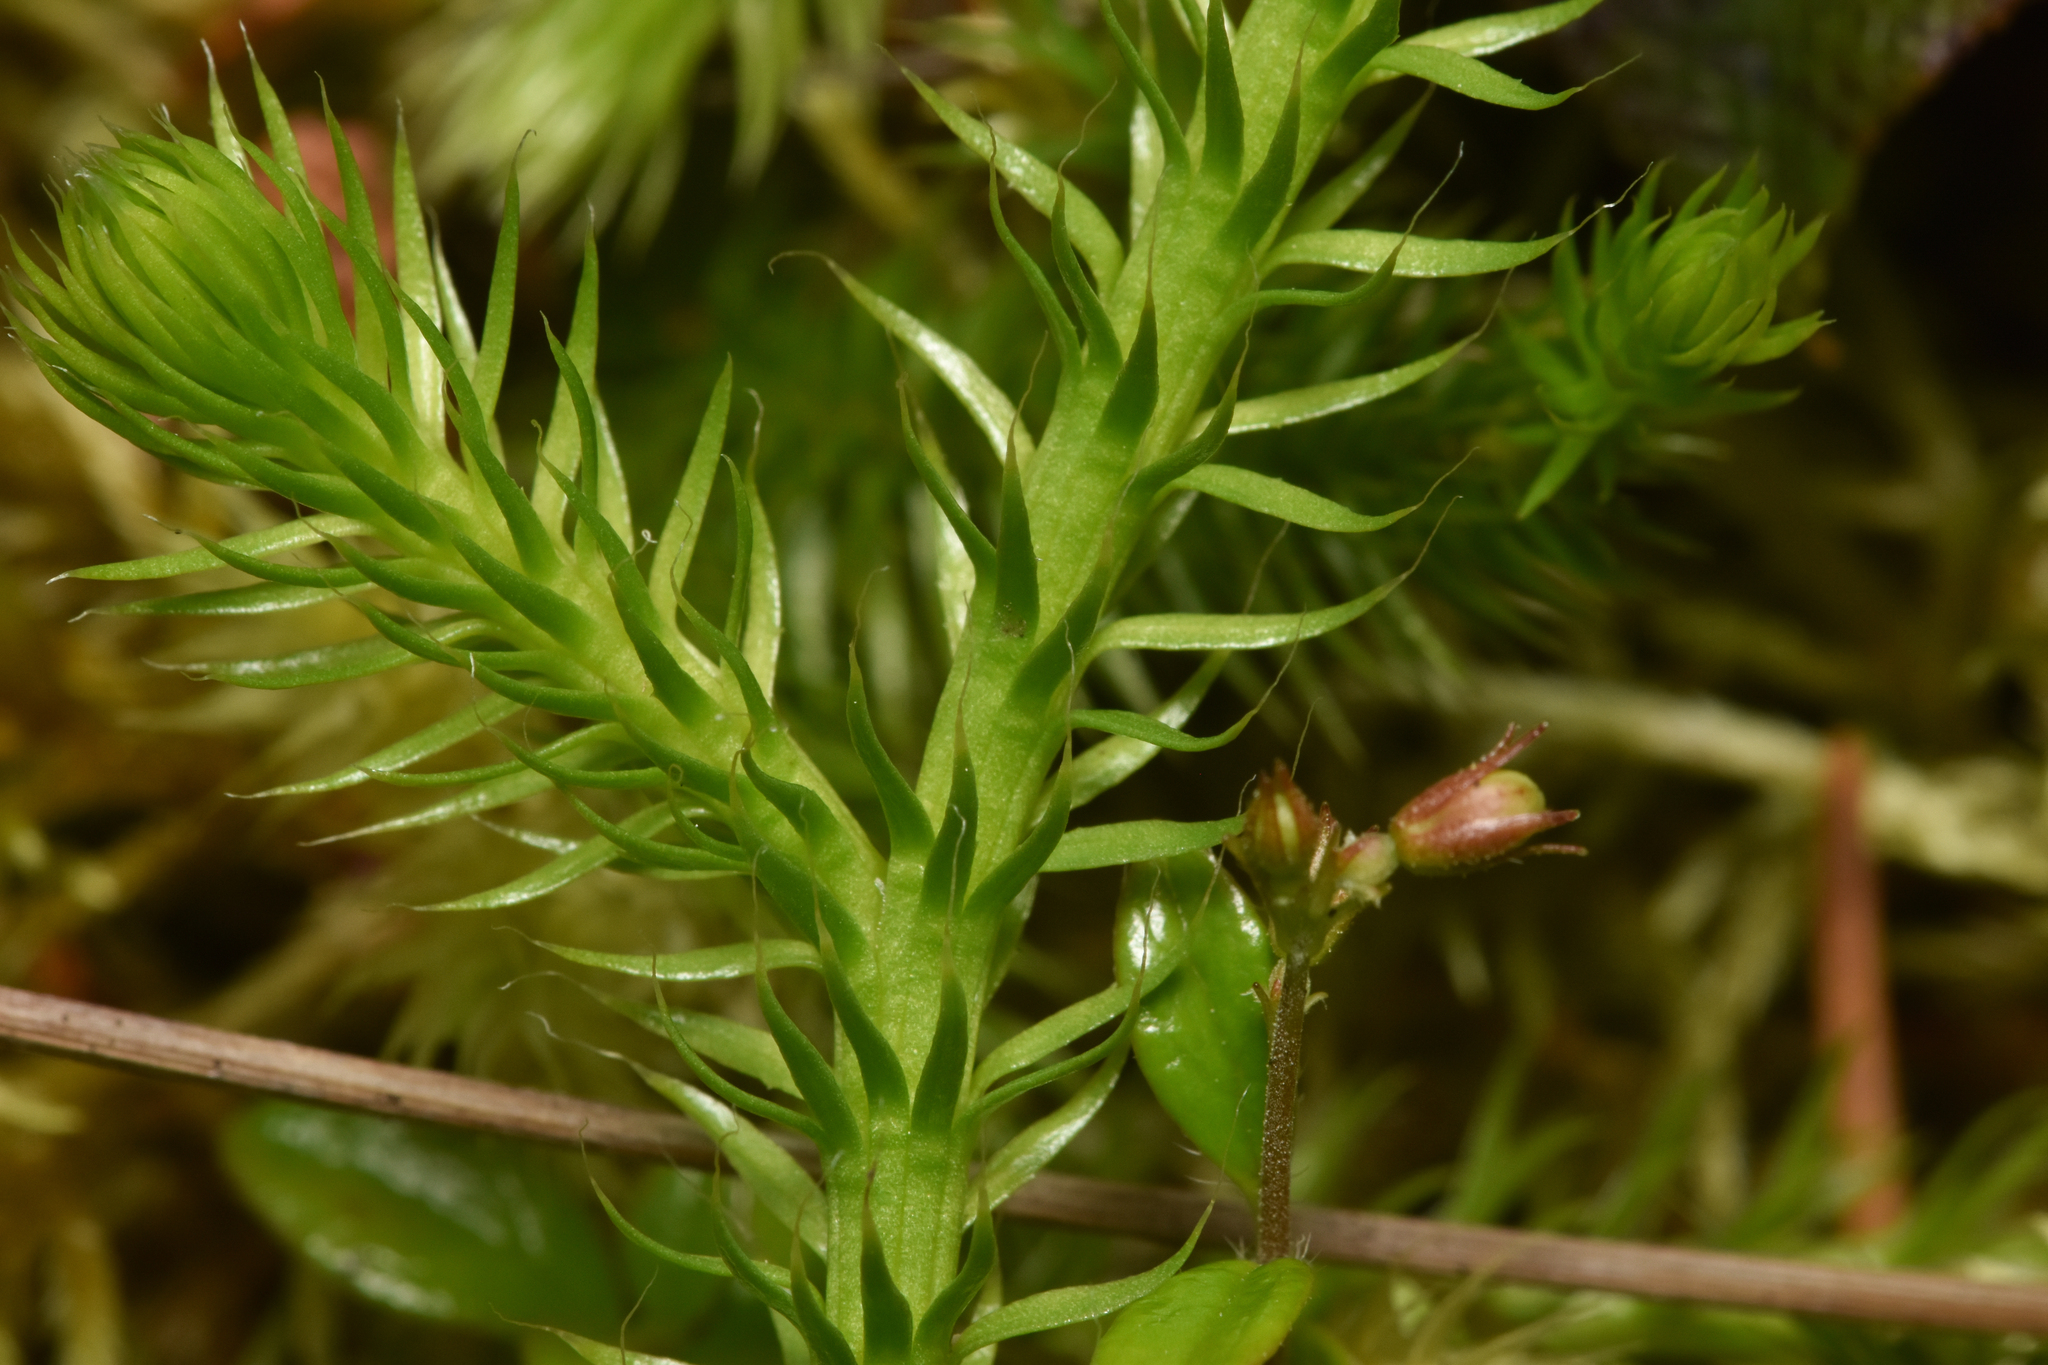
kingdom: Plantae
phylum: Tracheophyta
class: Lycopodiopsida
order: Lycopodiales
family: Lycopodiaceae
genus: Lycopodium
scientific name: Lycopodium clavatum
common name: Stag's-horn clubmoss
